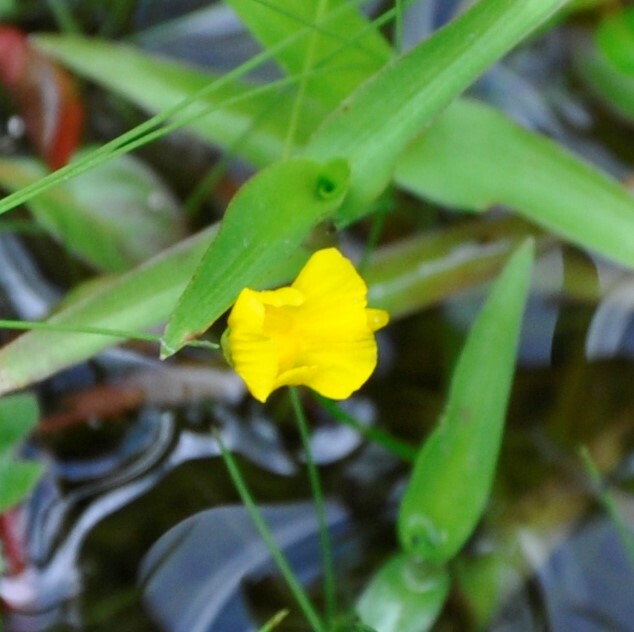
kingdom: Plantae
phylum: Tracheophyta
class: Magnoliopsida
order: Lamiales
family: Lentibulariaceae
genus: Utricularia
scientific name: Utricularia gibba
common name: Humped bladderwort
